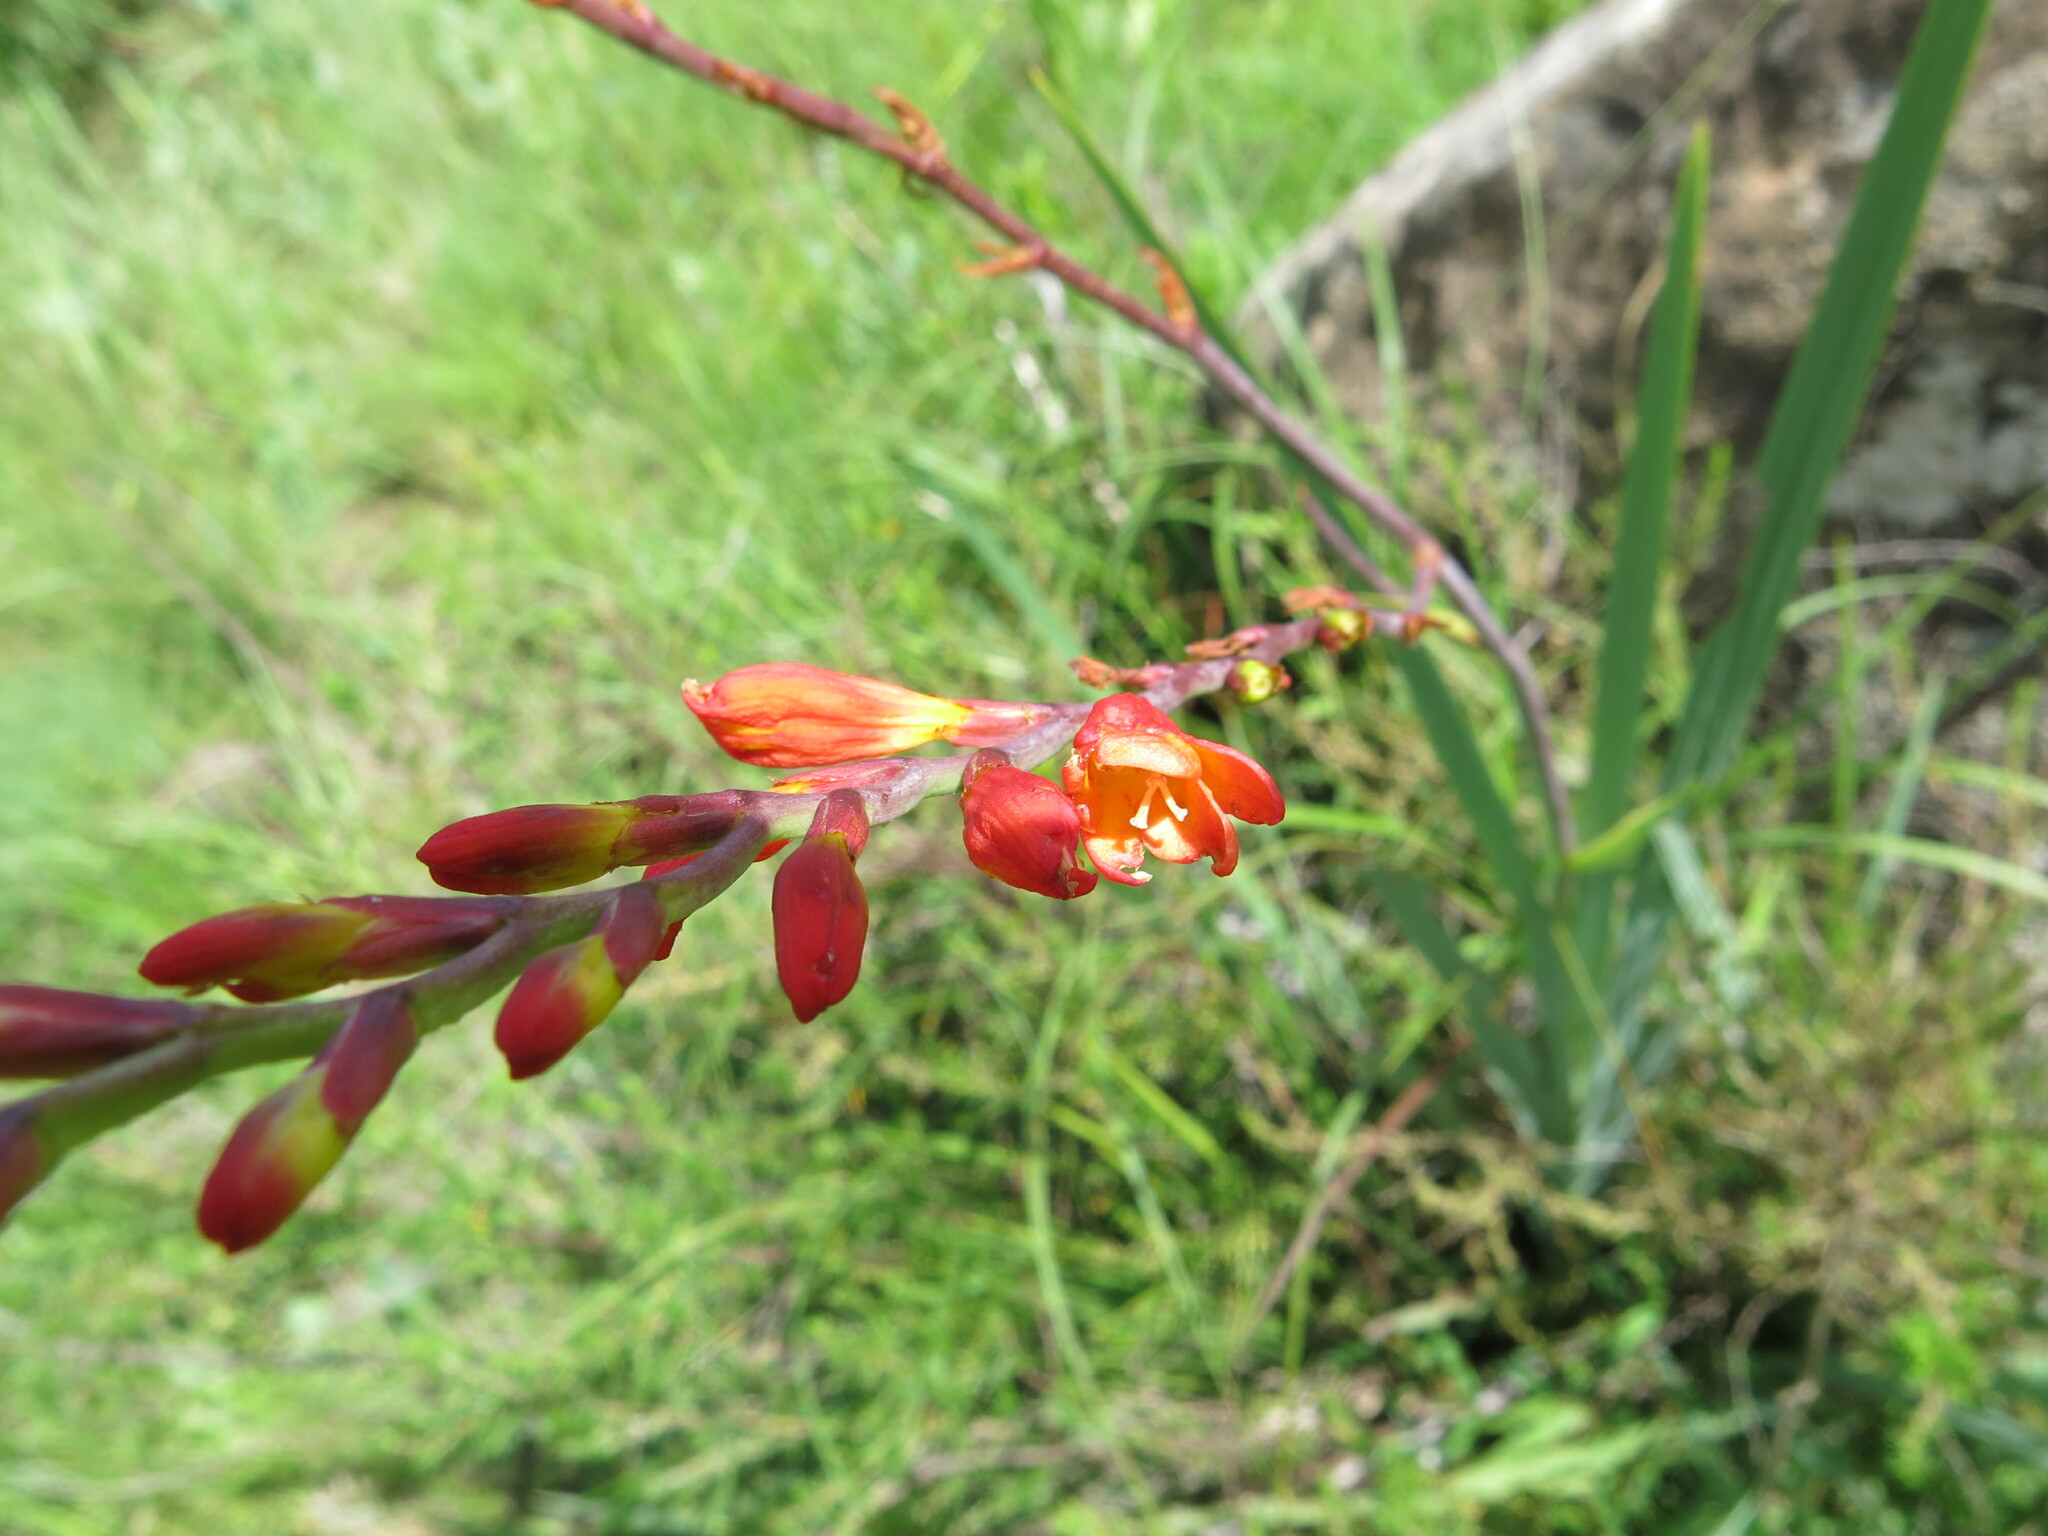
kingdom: Plantae
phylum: Tracheophyta
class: Liliopsida
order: Asparagales
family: Iridaceae
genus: Crocosmia
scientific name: Crocosmia pottsii
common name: Pott's montbretia
